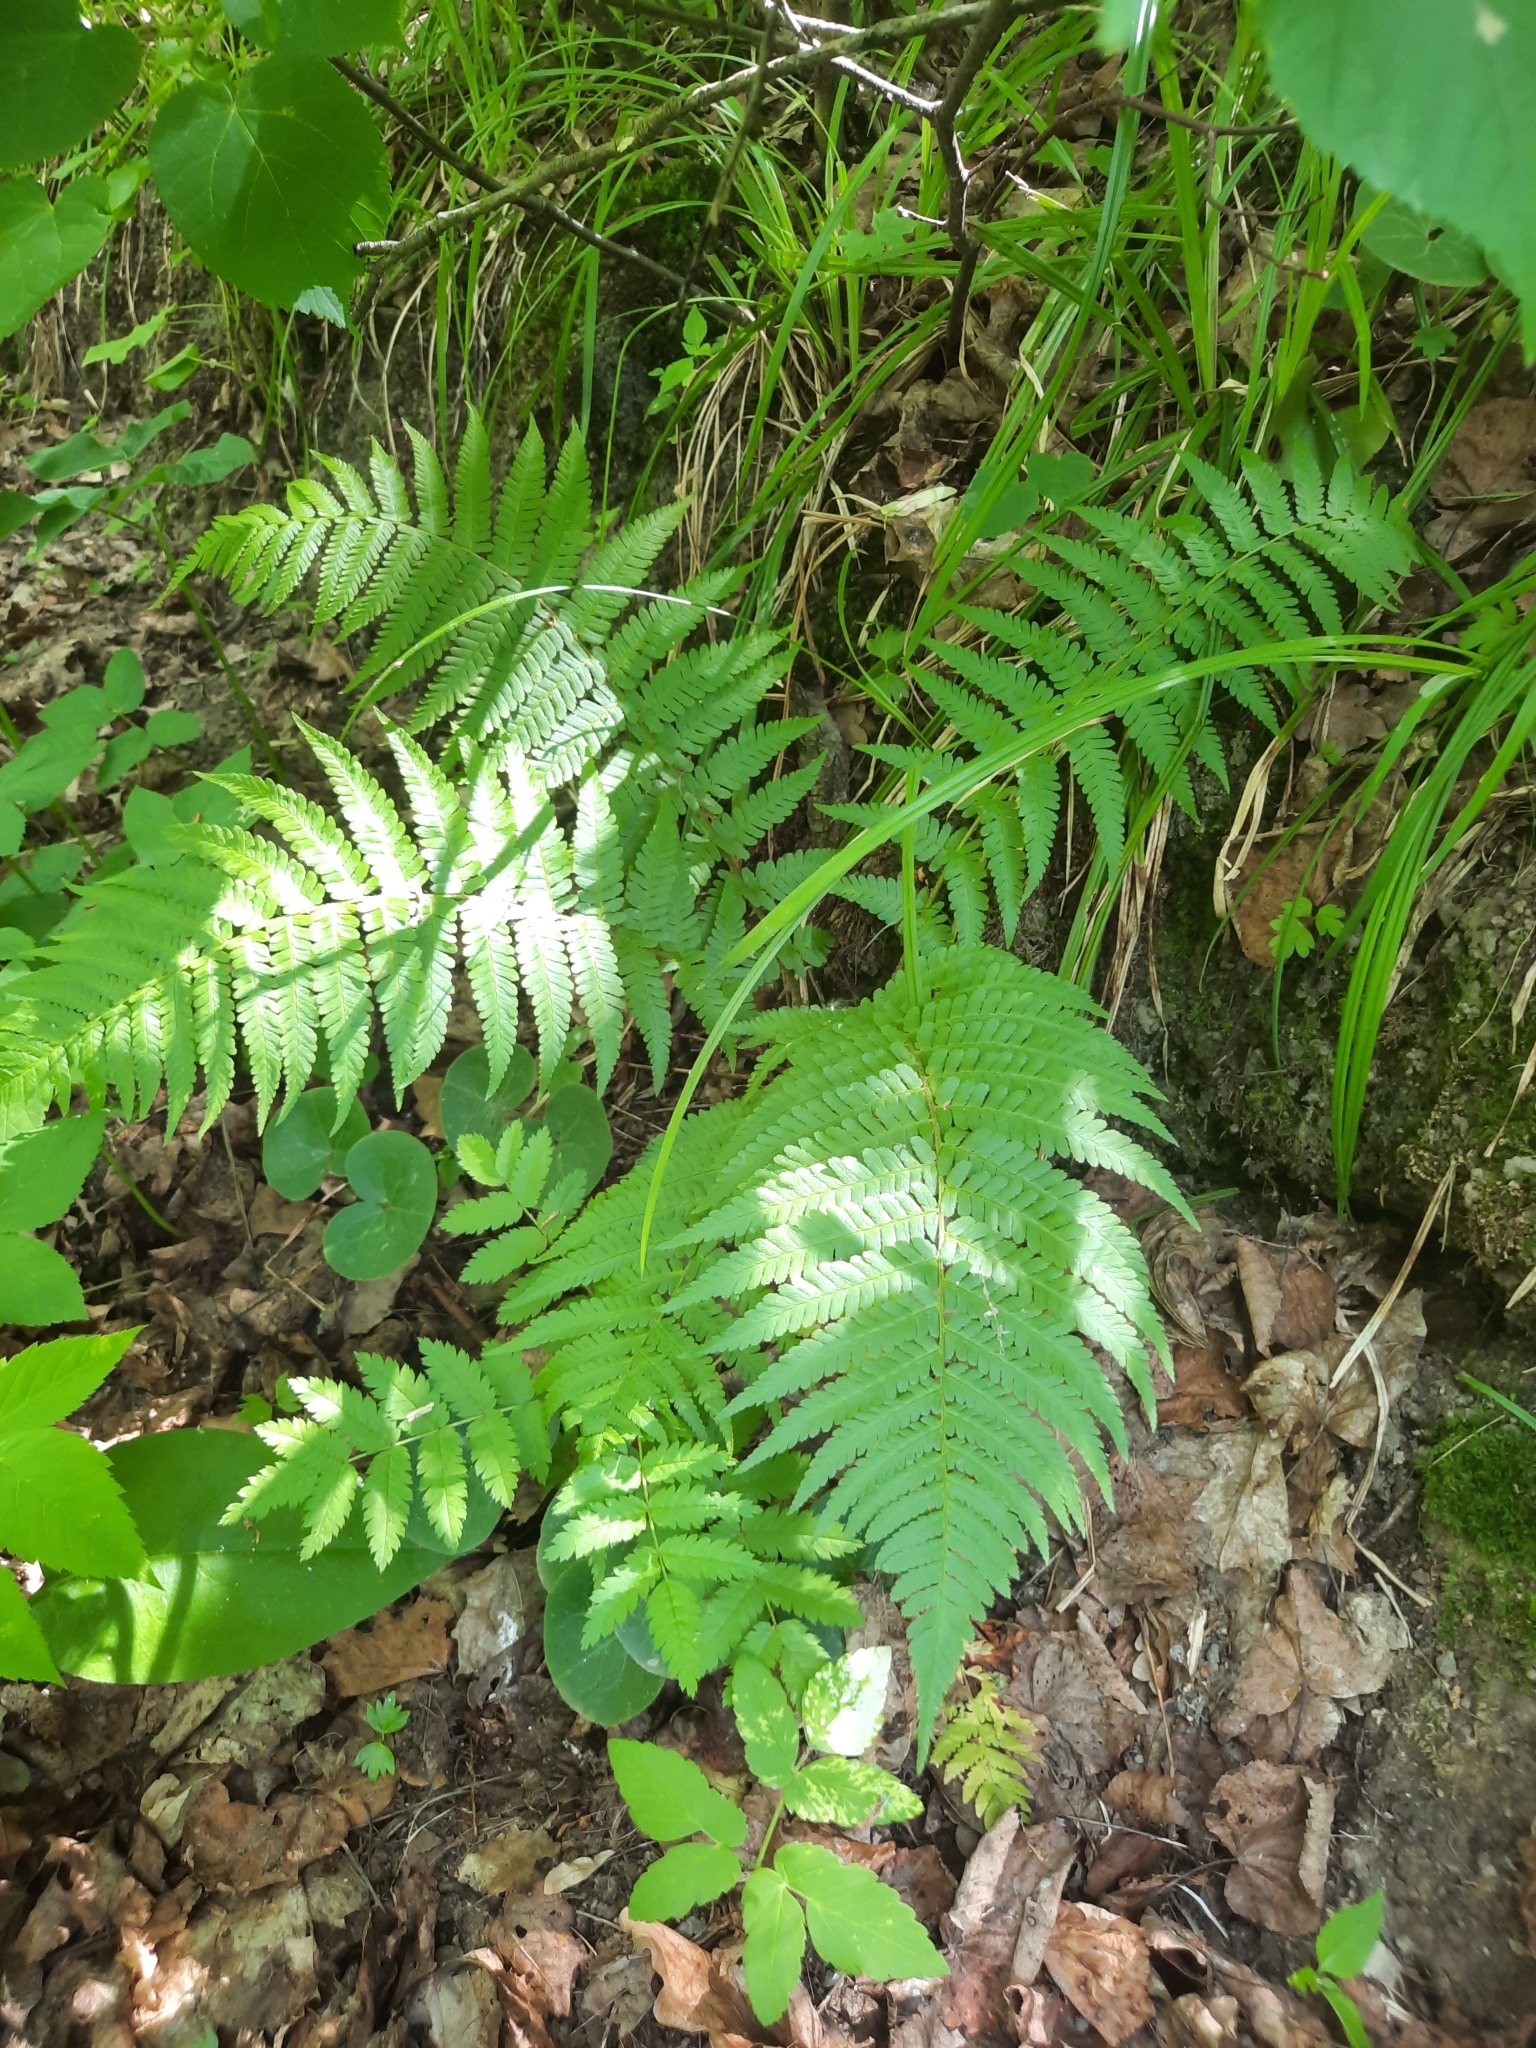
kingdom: Plantae
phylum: Tracheophyta
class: Polypodiopsida
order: Polypodiales
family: Dryopteridaceae
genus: Dryopteris
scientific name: Dryopteris filix-mas
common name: Male fern
